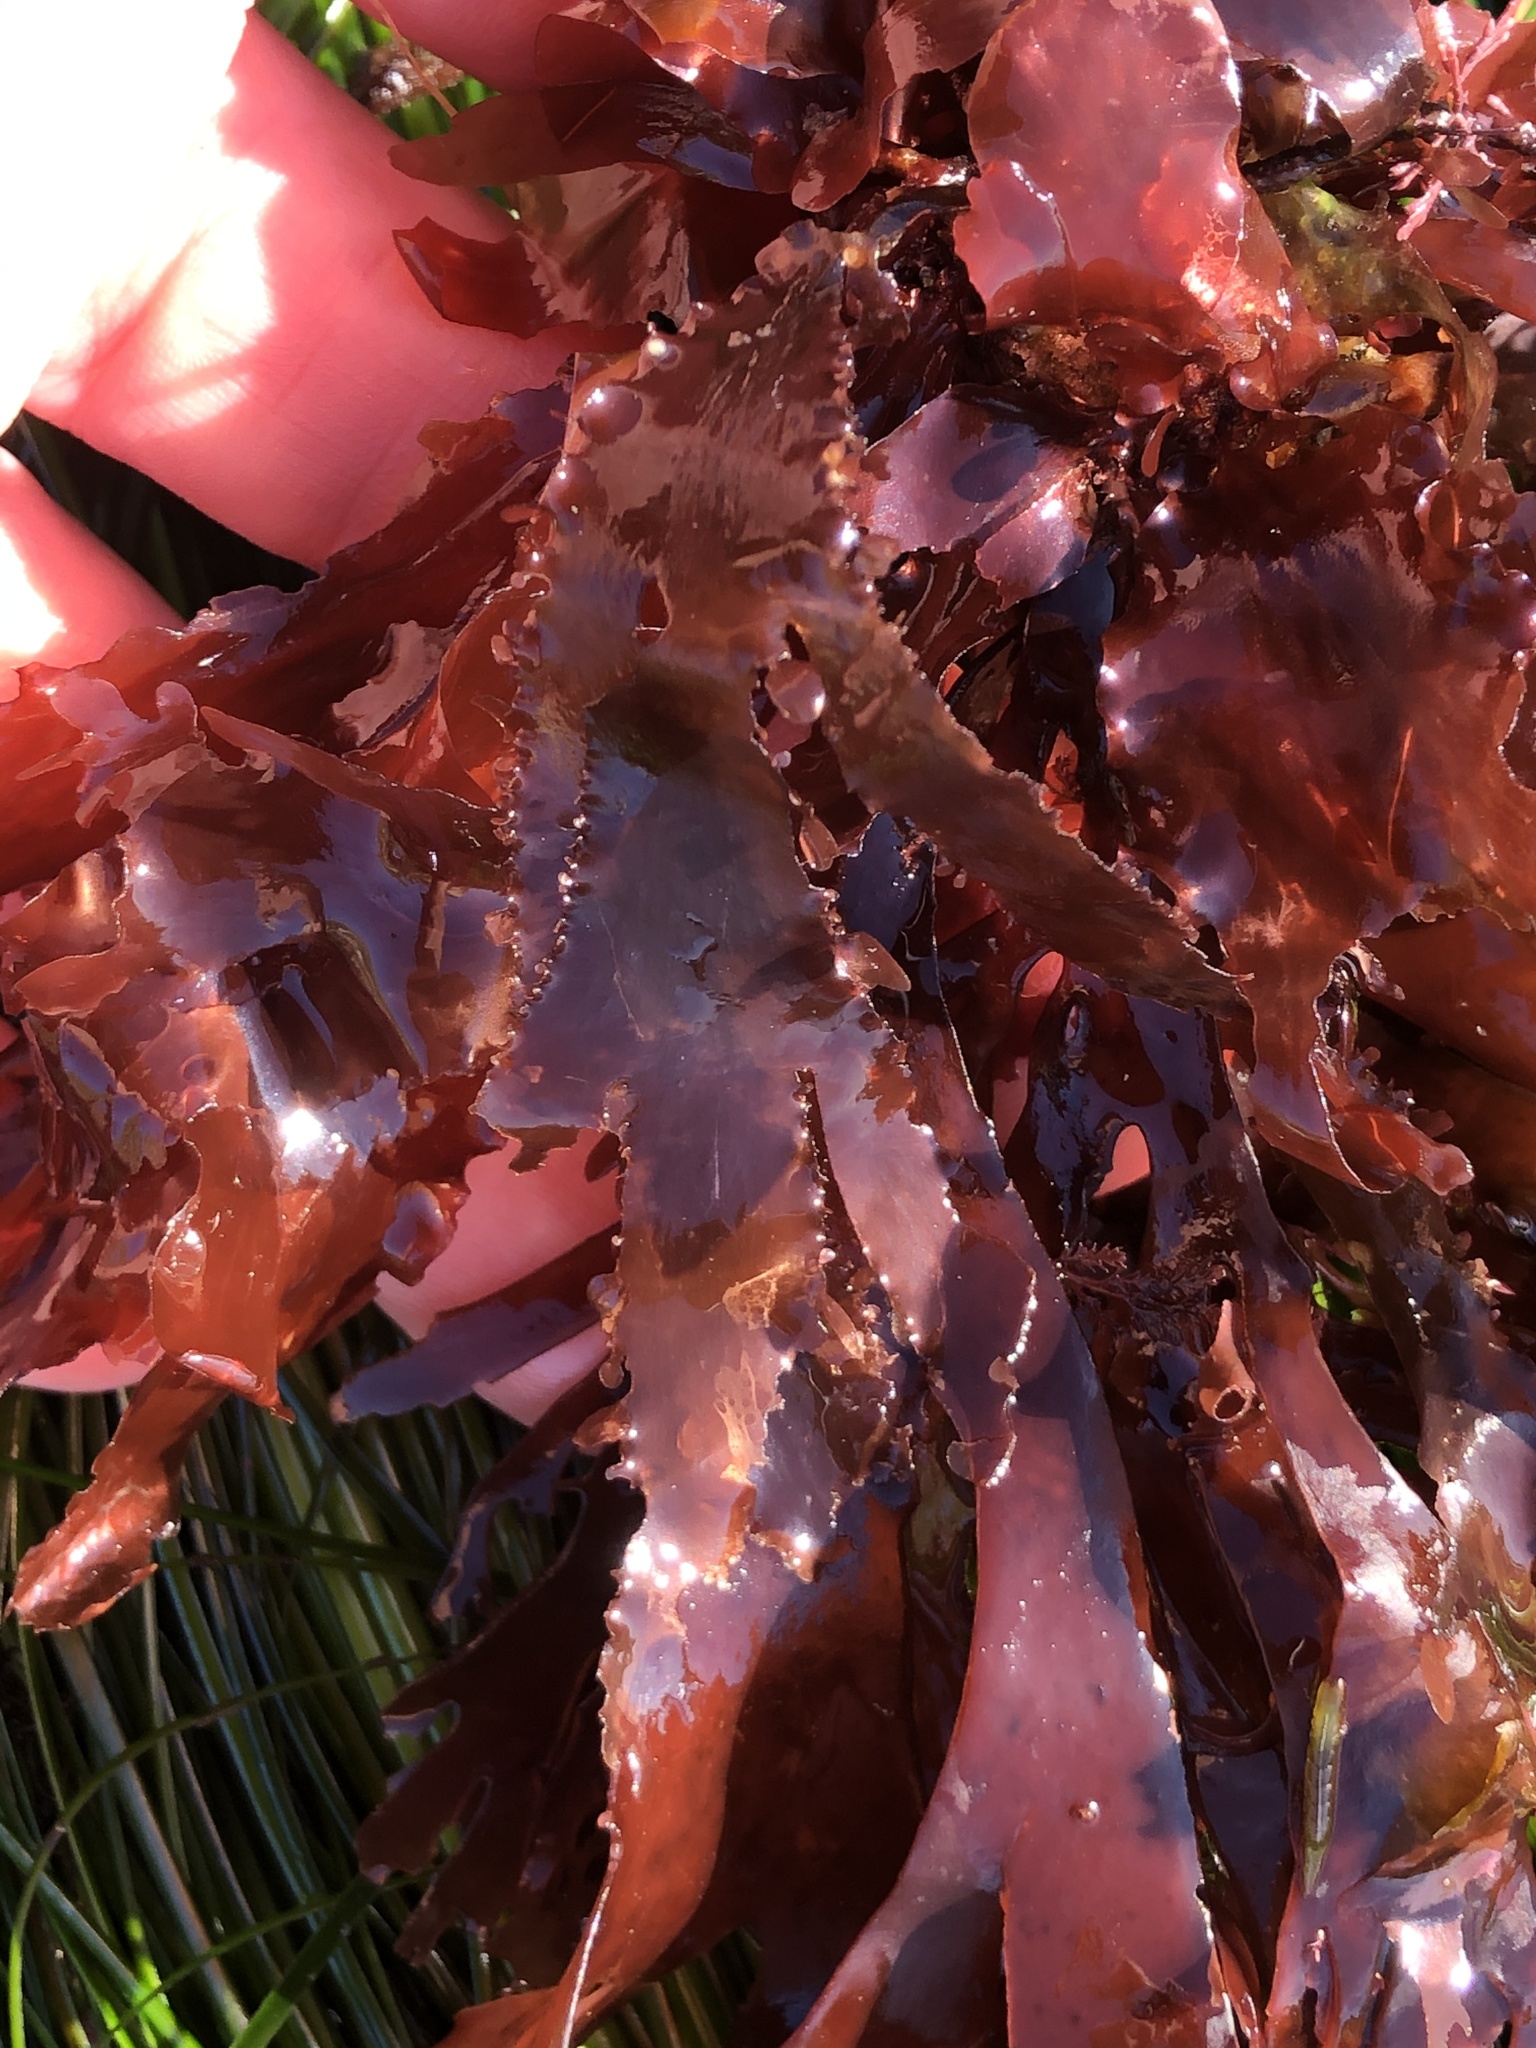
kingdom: Plantae
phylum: Rhodophyta
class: Florideophyceae
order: Ceramiales
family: Delesseriaceae
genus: Cryptopleura
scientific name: Cryptopleura ruprechtiana
